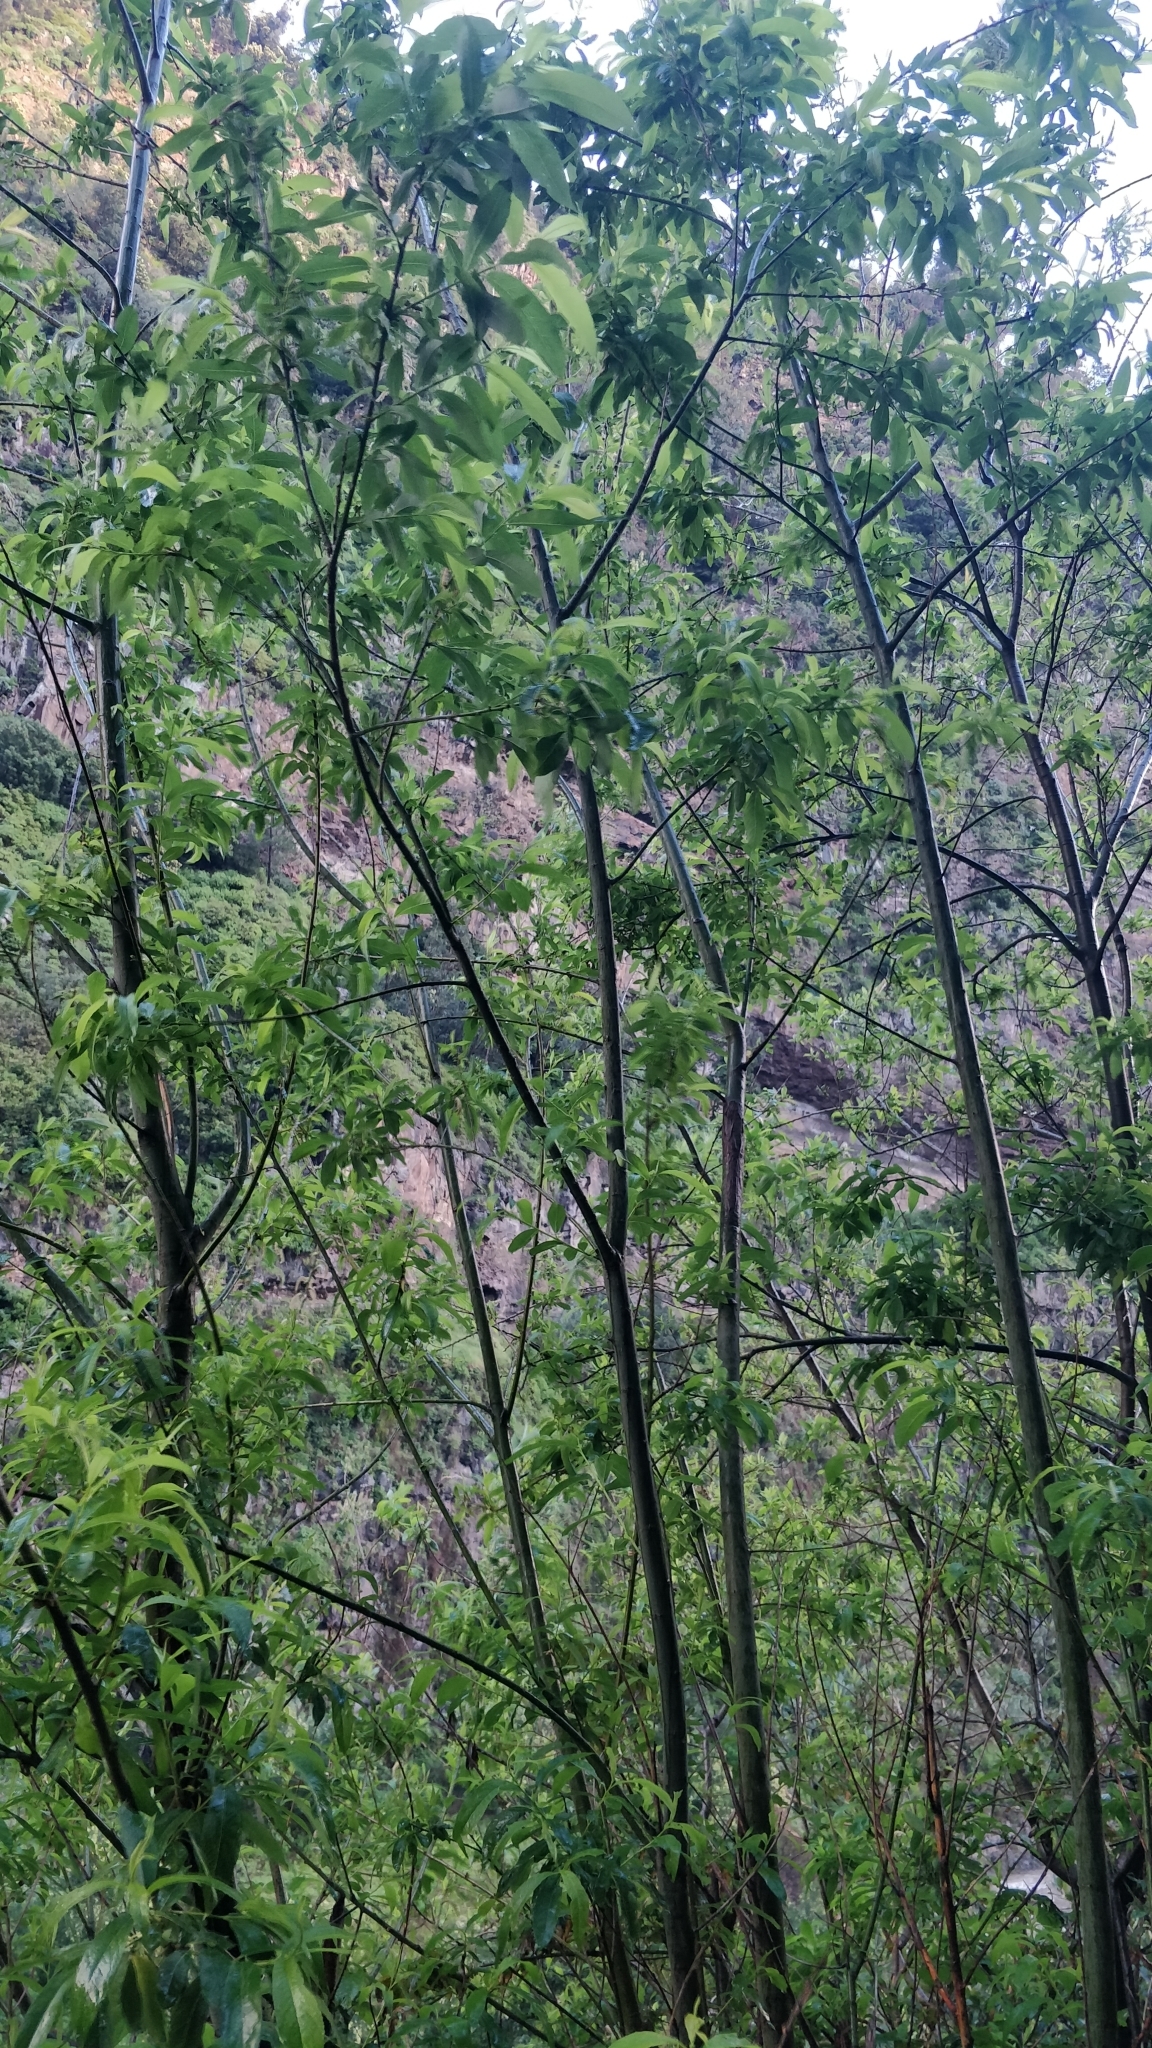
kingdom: Plantae
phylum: Tracheophyta
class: Magnoliopsida
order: Malpighiales
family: Salicaceae
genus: Salix
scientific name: Salix canariensis
